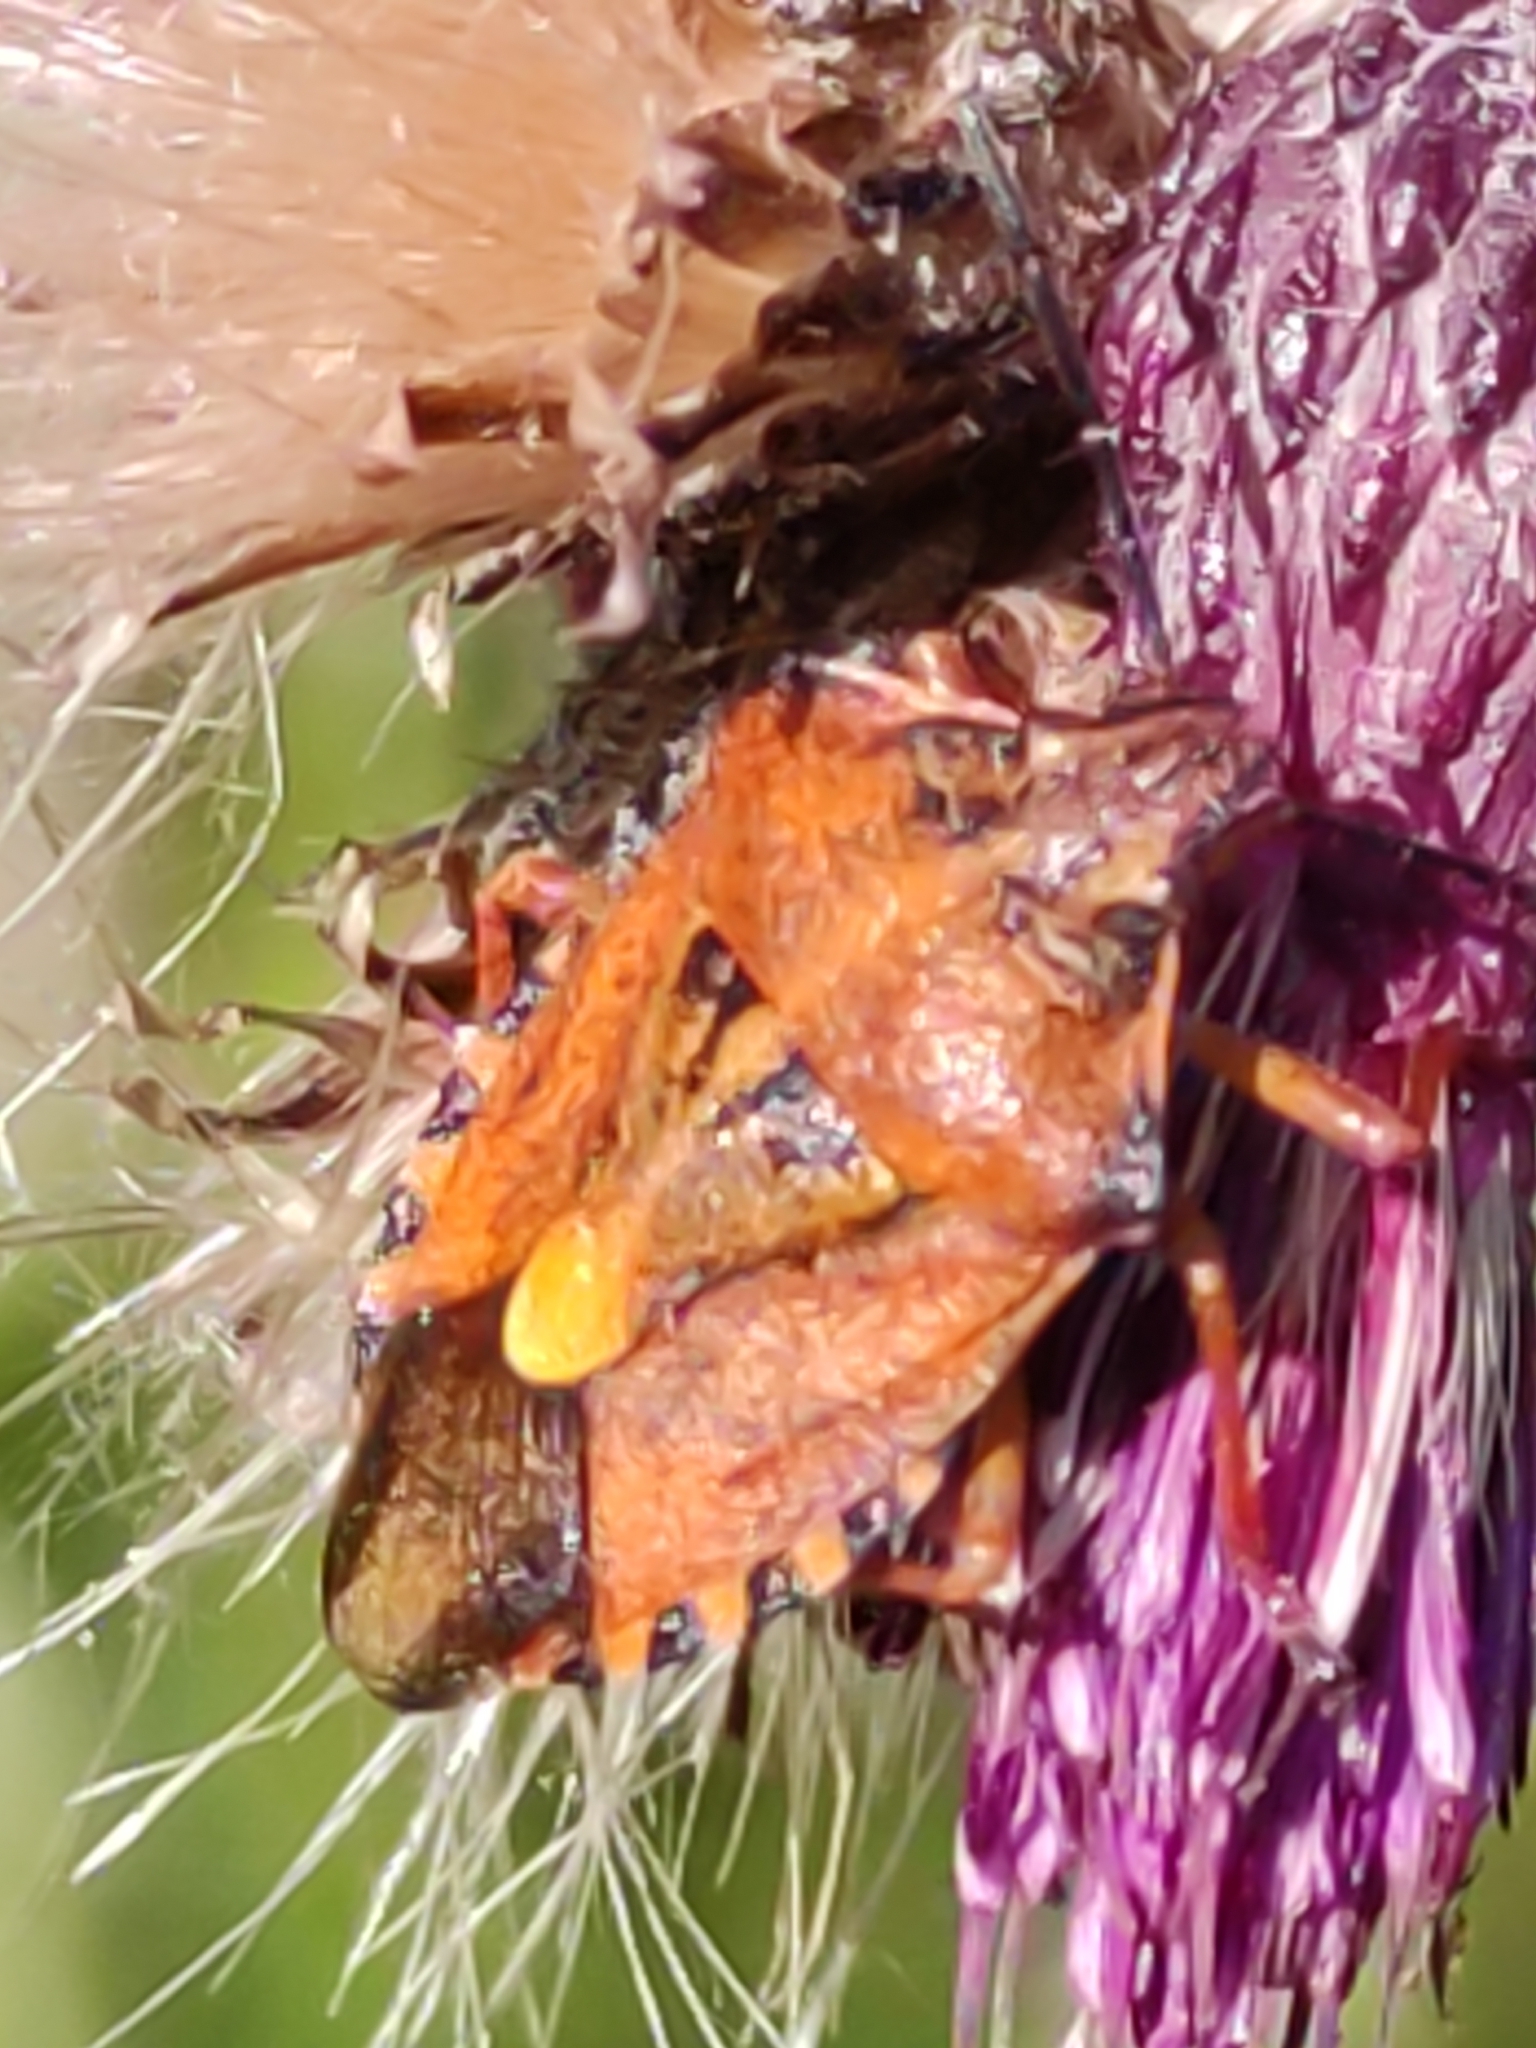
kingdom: Animalia
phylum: Arthropoda
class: Insecta
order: Hemiptera
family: Pentatomidae
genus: Carpocoris
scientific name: Carpocoris purpureipennis
